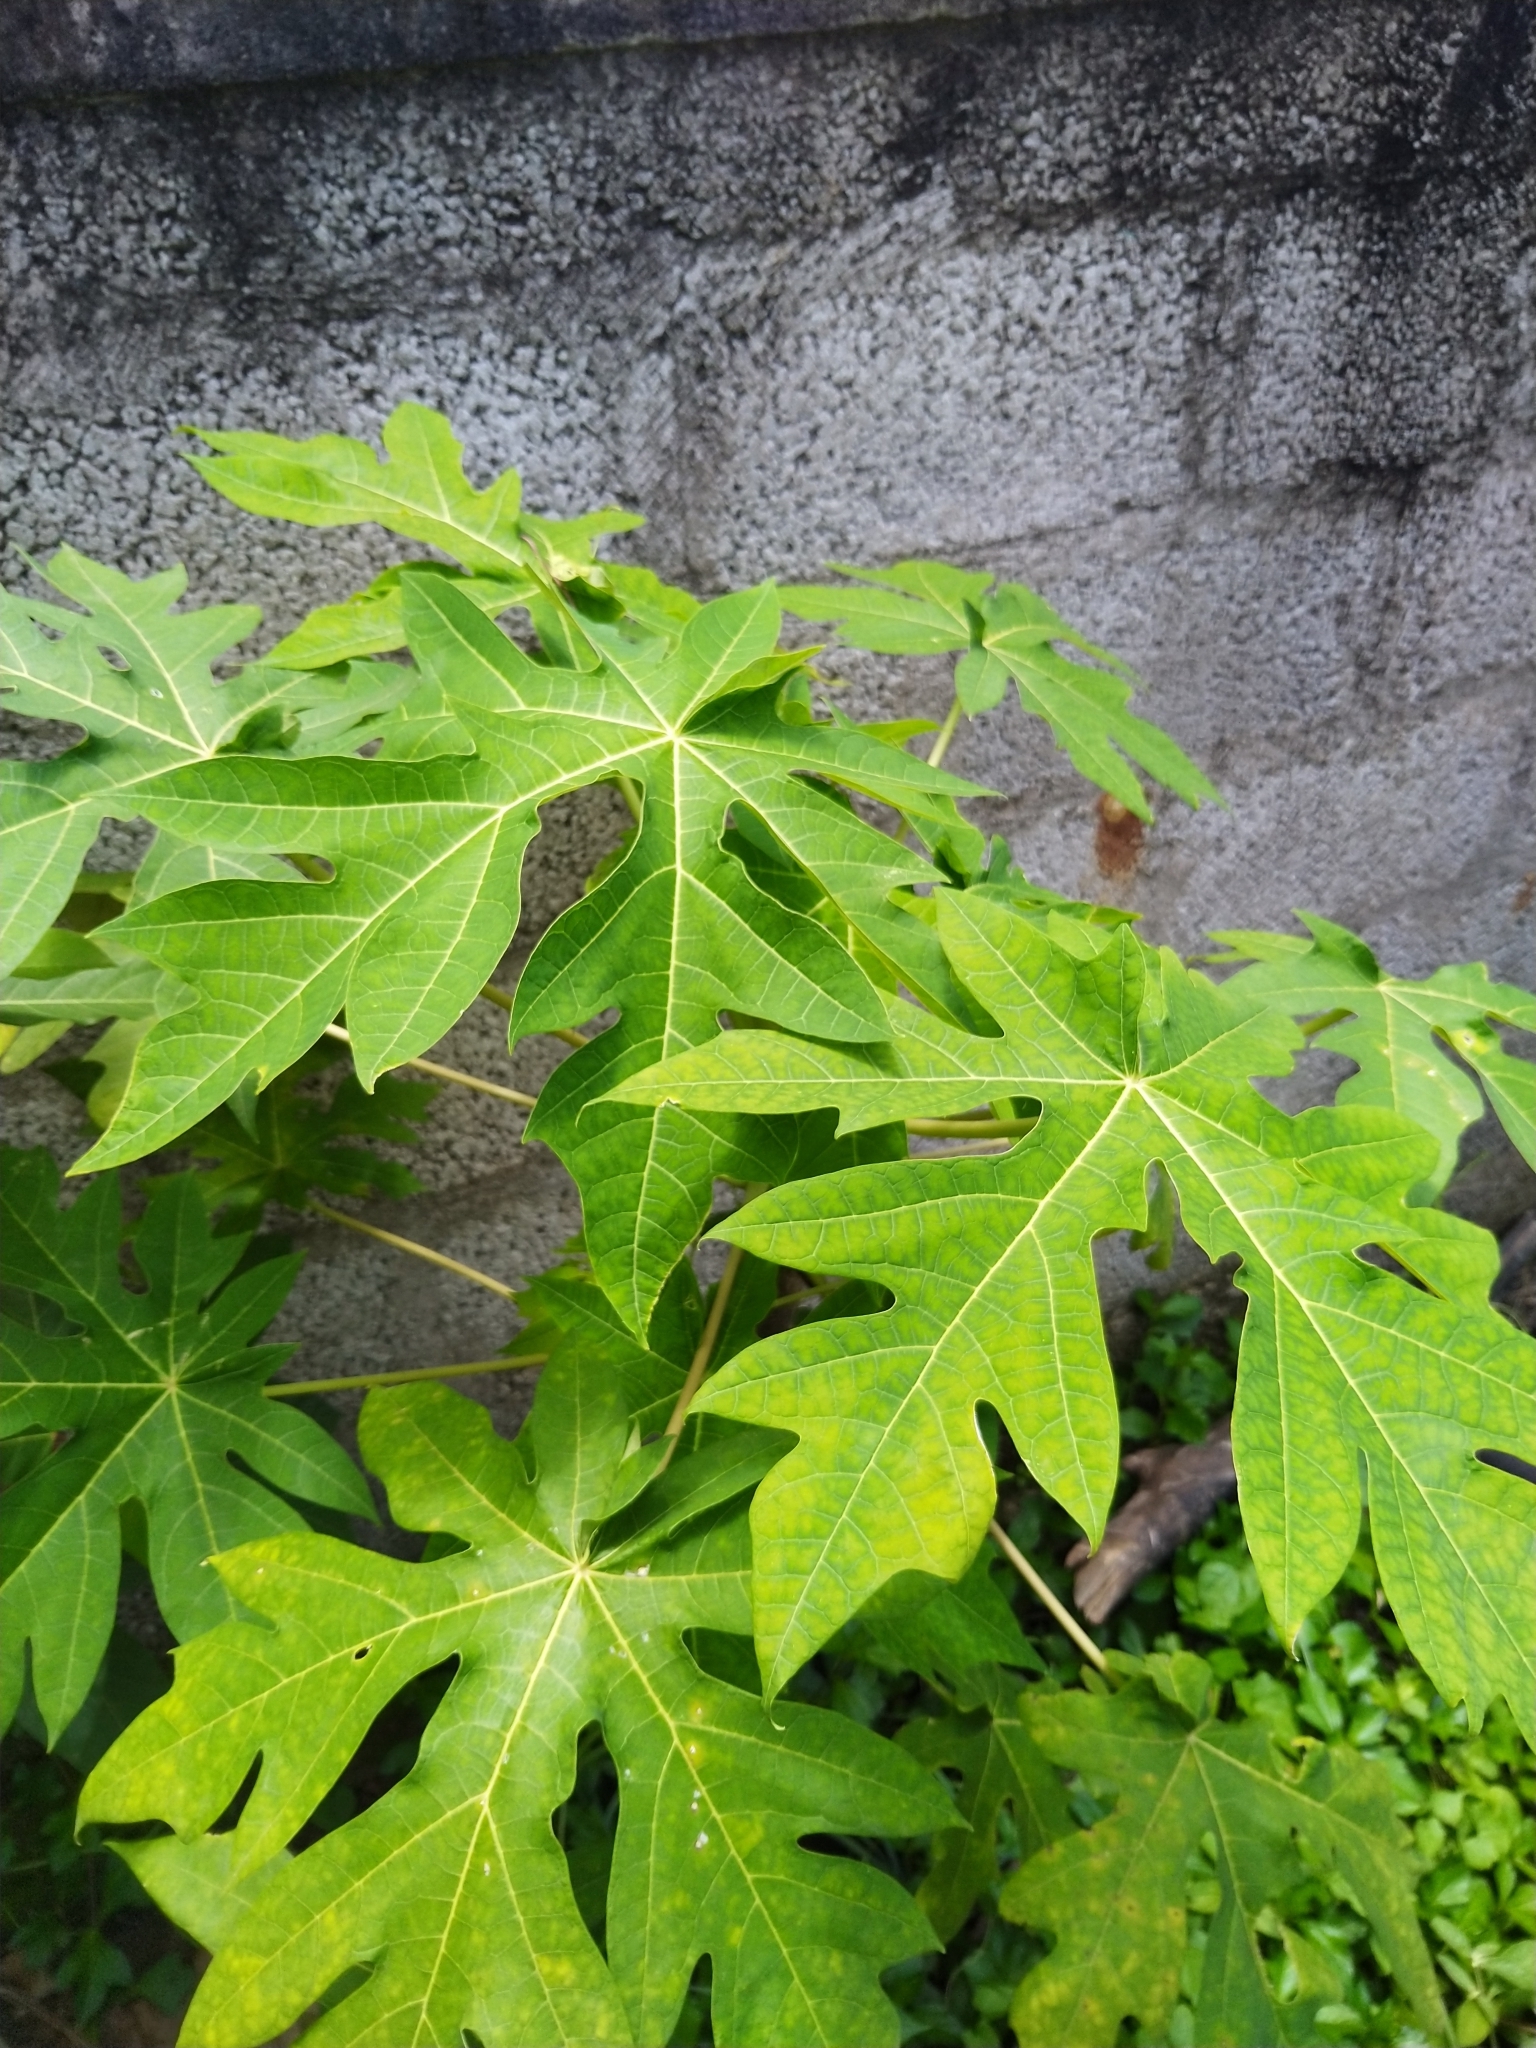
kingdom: Plantae
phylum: Tracheophyta
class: Magnoliopsida
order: Brassicales
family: Caricaceae
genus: Carica
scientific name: Carica papaya
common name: Papaya
